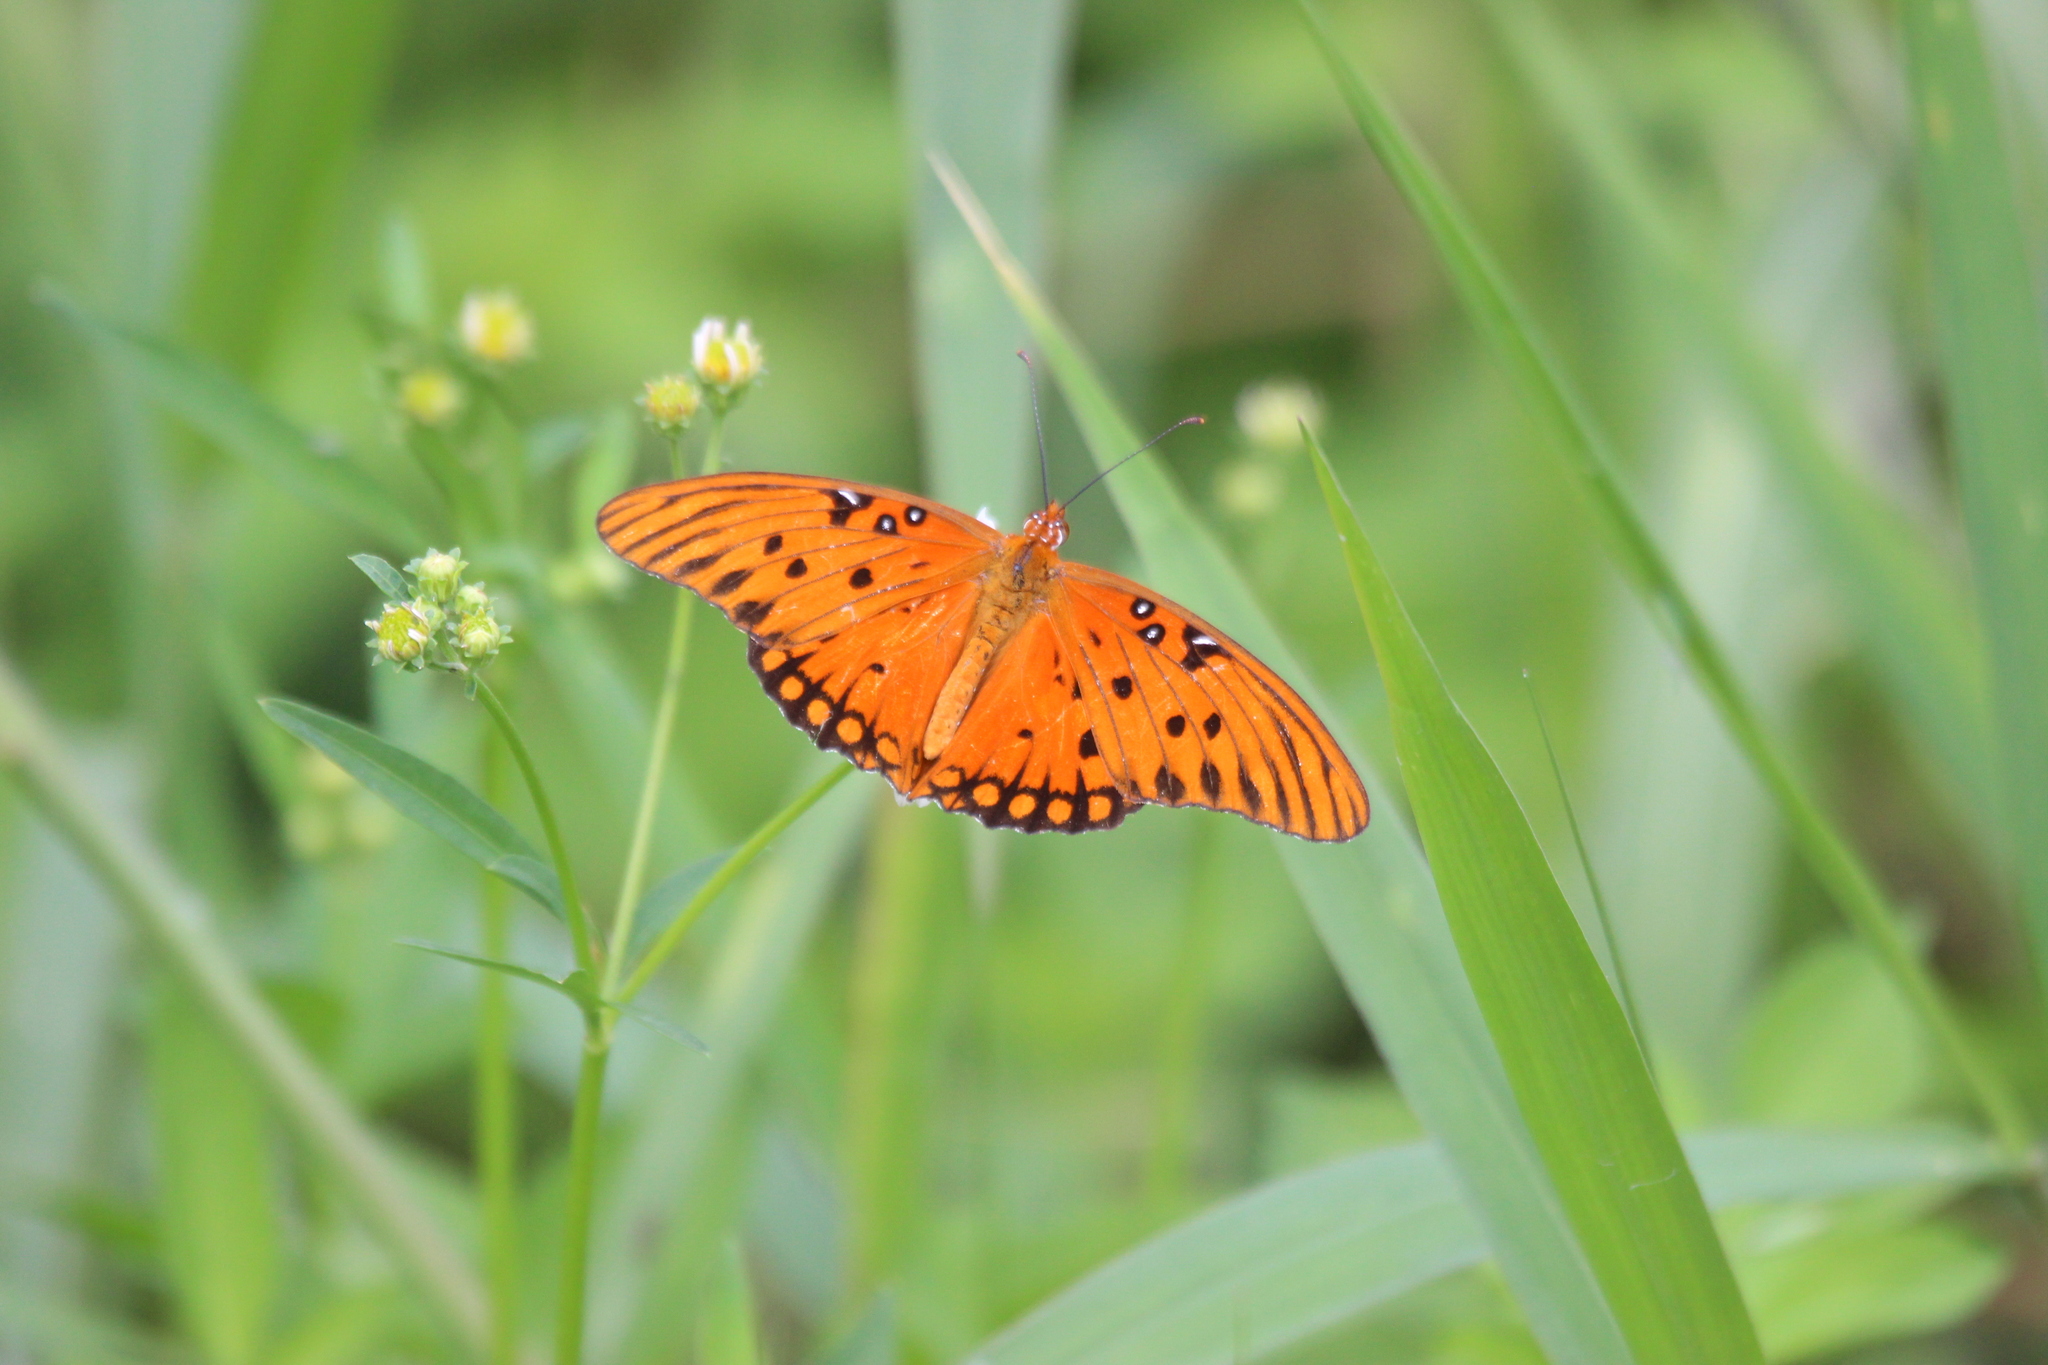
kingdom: Animalia
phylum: Arthropoda
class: Insecta
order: Lepidoptera
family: Nymphalidae
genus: Dione
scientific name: Dione vanillae
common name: Gulf fritillary
